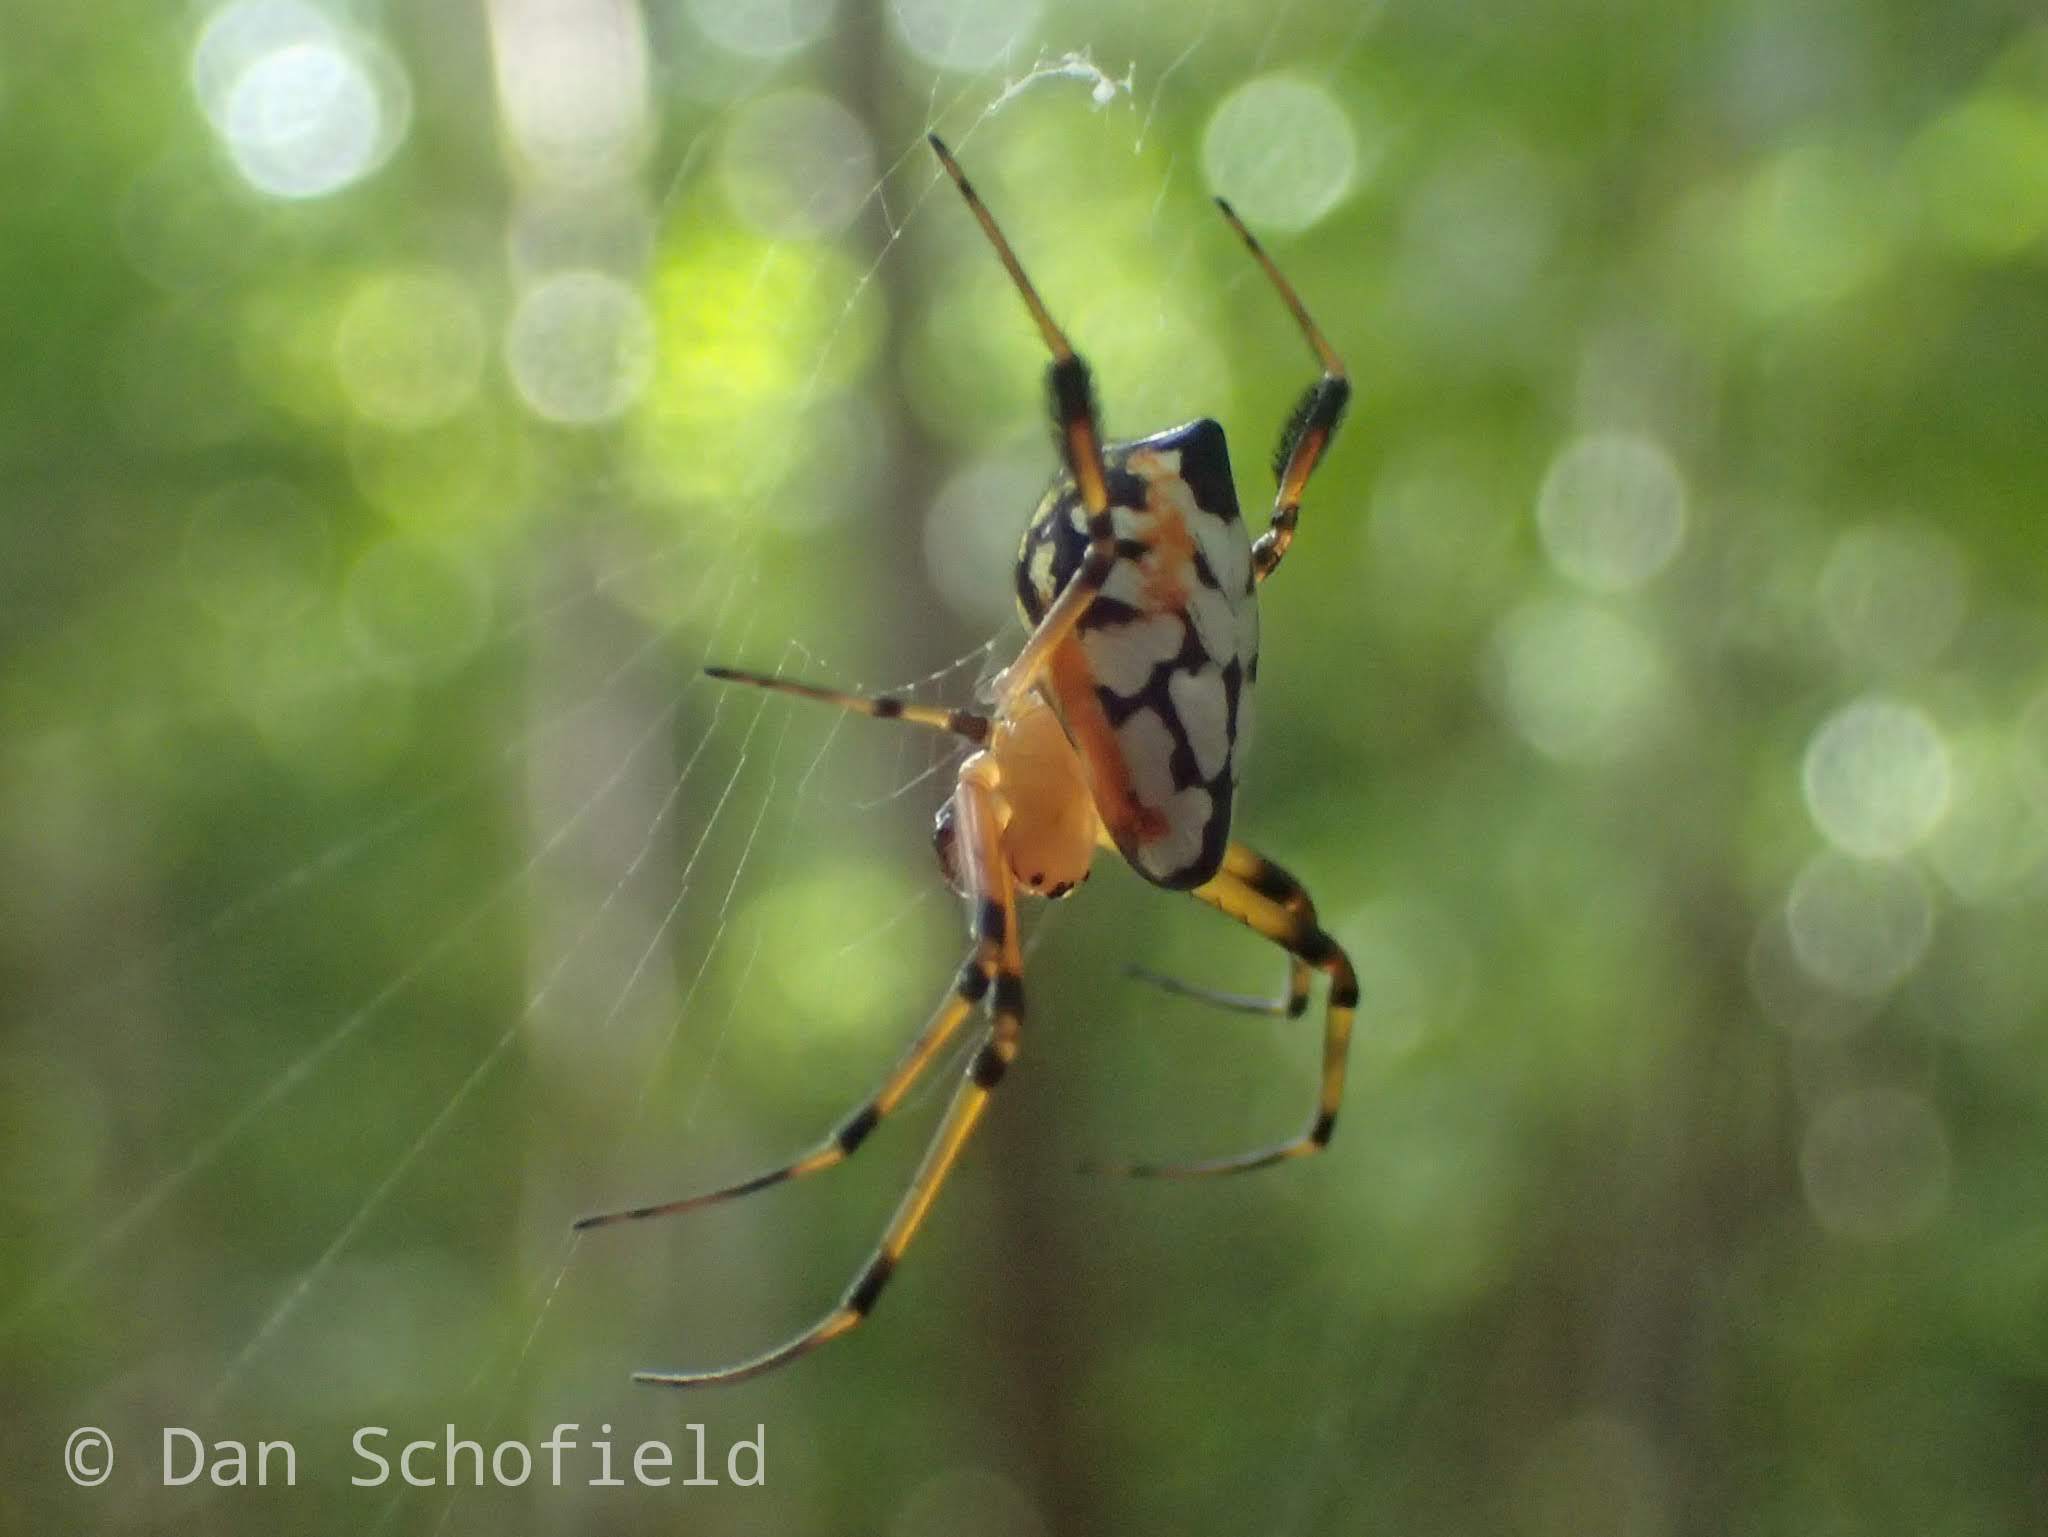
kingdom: Animalia
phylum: Arthropoda
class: Arachnida
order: Araneae
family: Tetragnathidae
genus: Leucauge
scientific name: Leucauge fastigata
